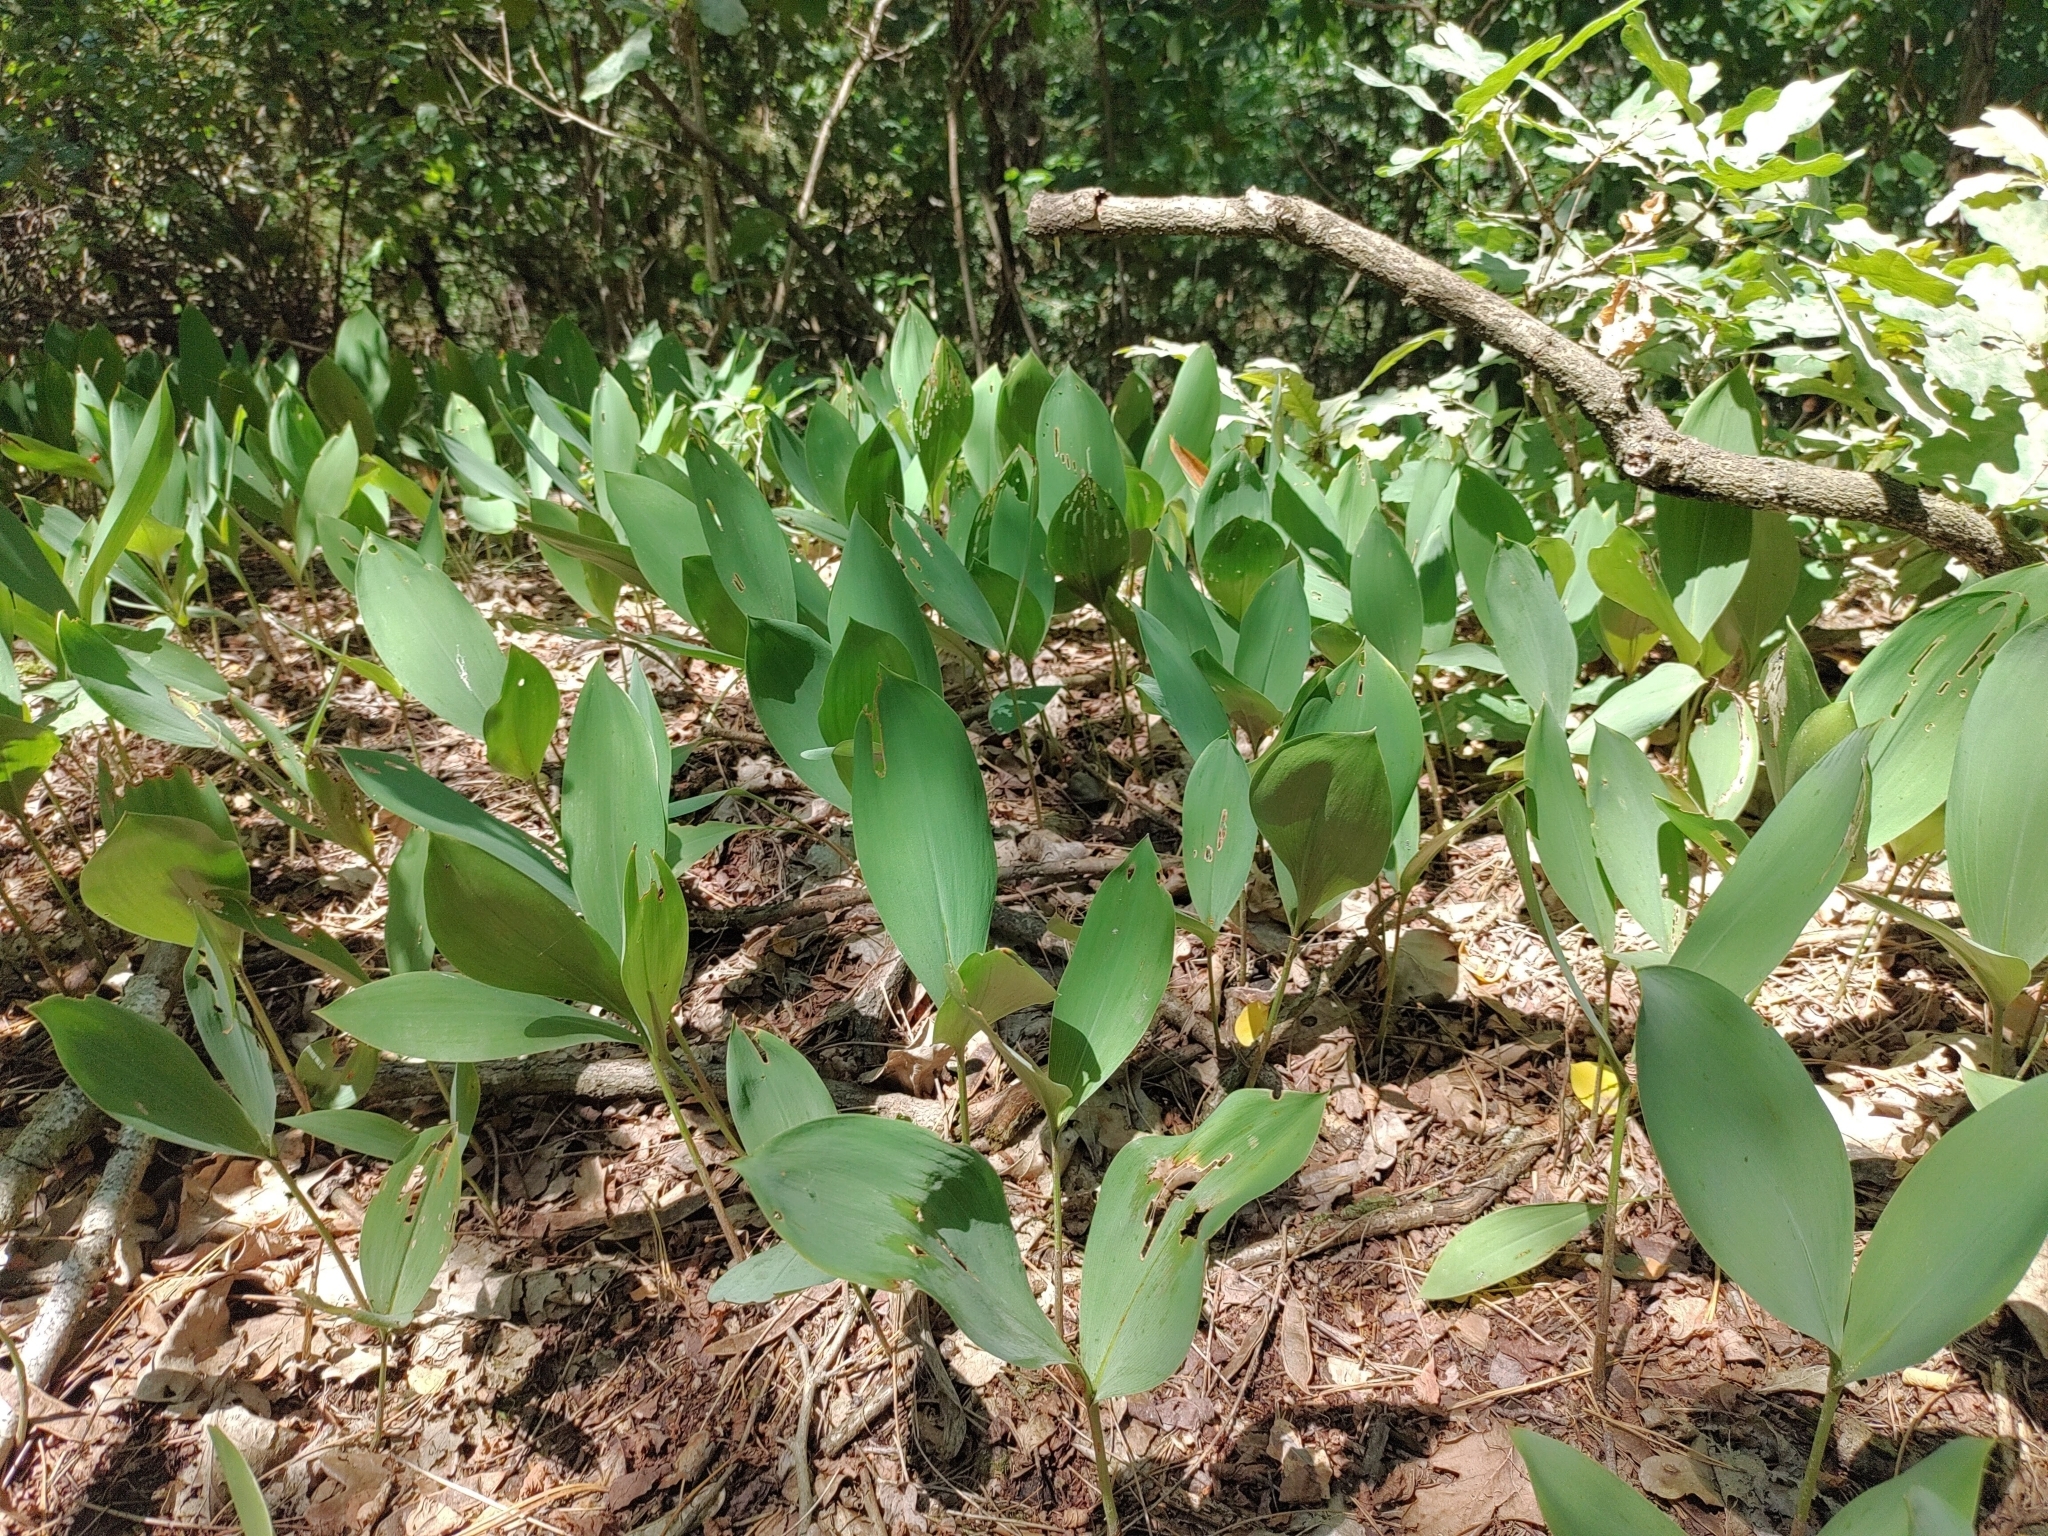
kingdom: Plantae
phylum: Tracheophyta
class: Liliopsida
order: Asparagales
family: Asparagaceae
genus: Convallaria
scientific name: Convallaria majalis
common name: Lily-of-the-valley
